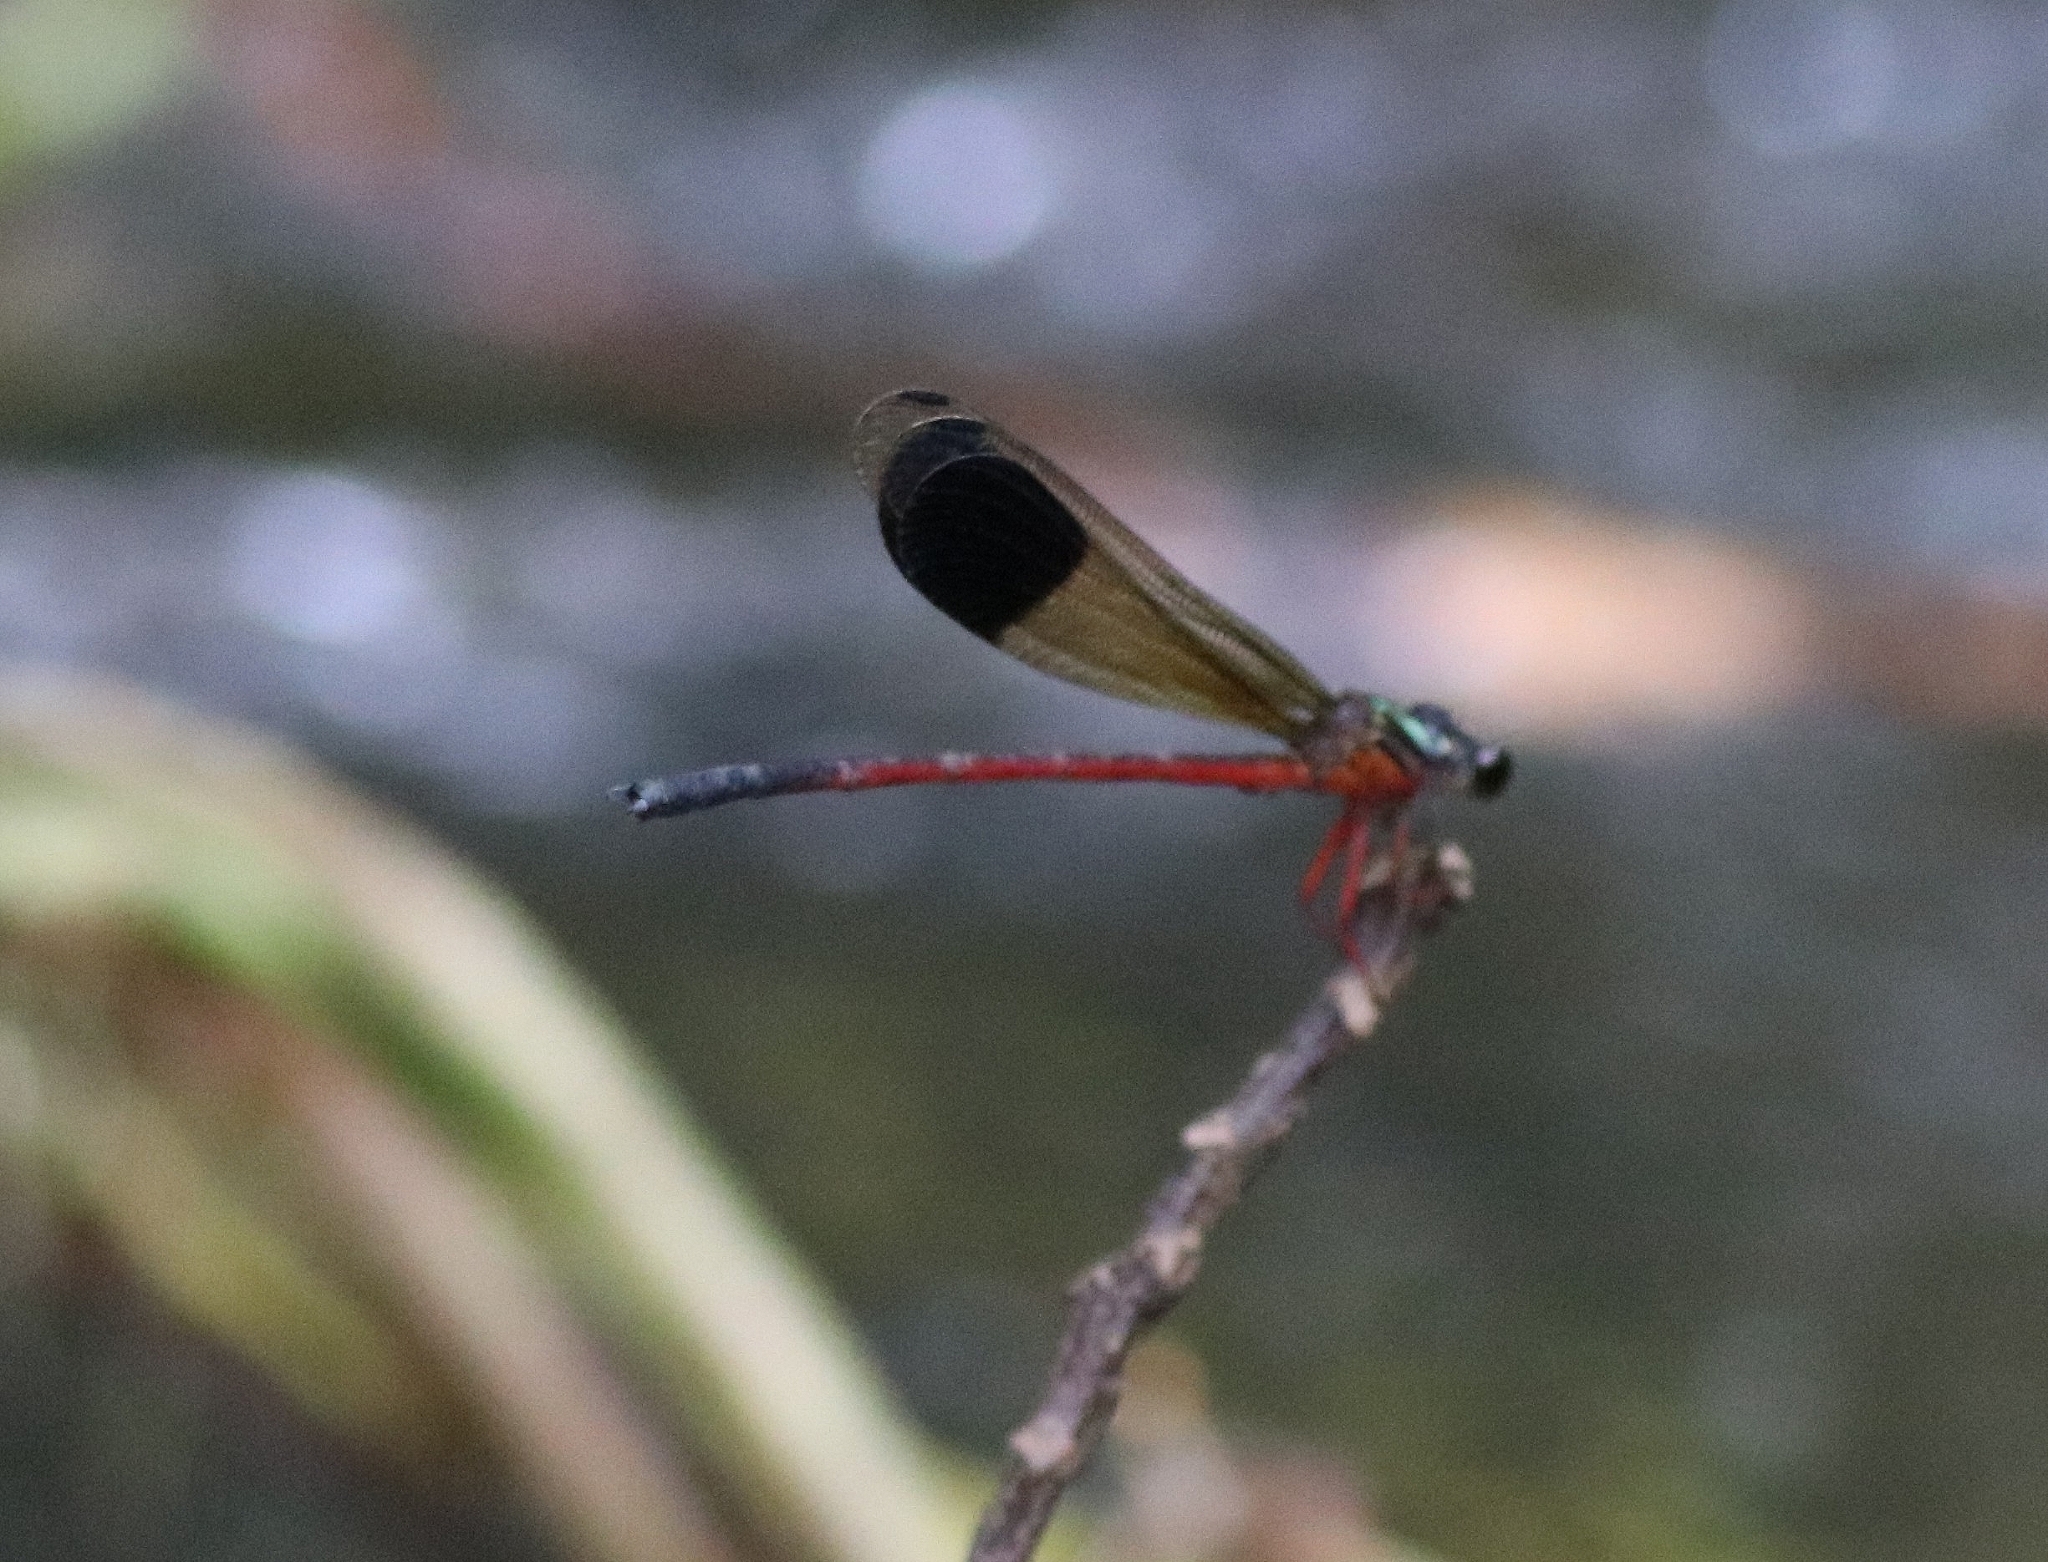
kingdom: Animalia
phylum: Arthropoda
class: Insecta
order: Odonata
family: Euphaeidae
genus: Euphaea
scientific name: Euphaea fraseri
